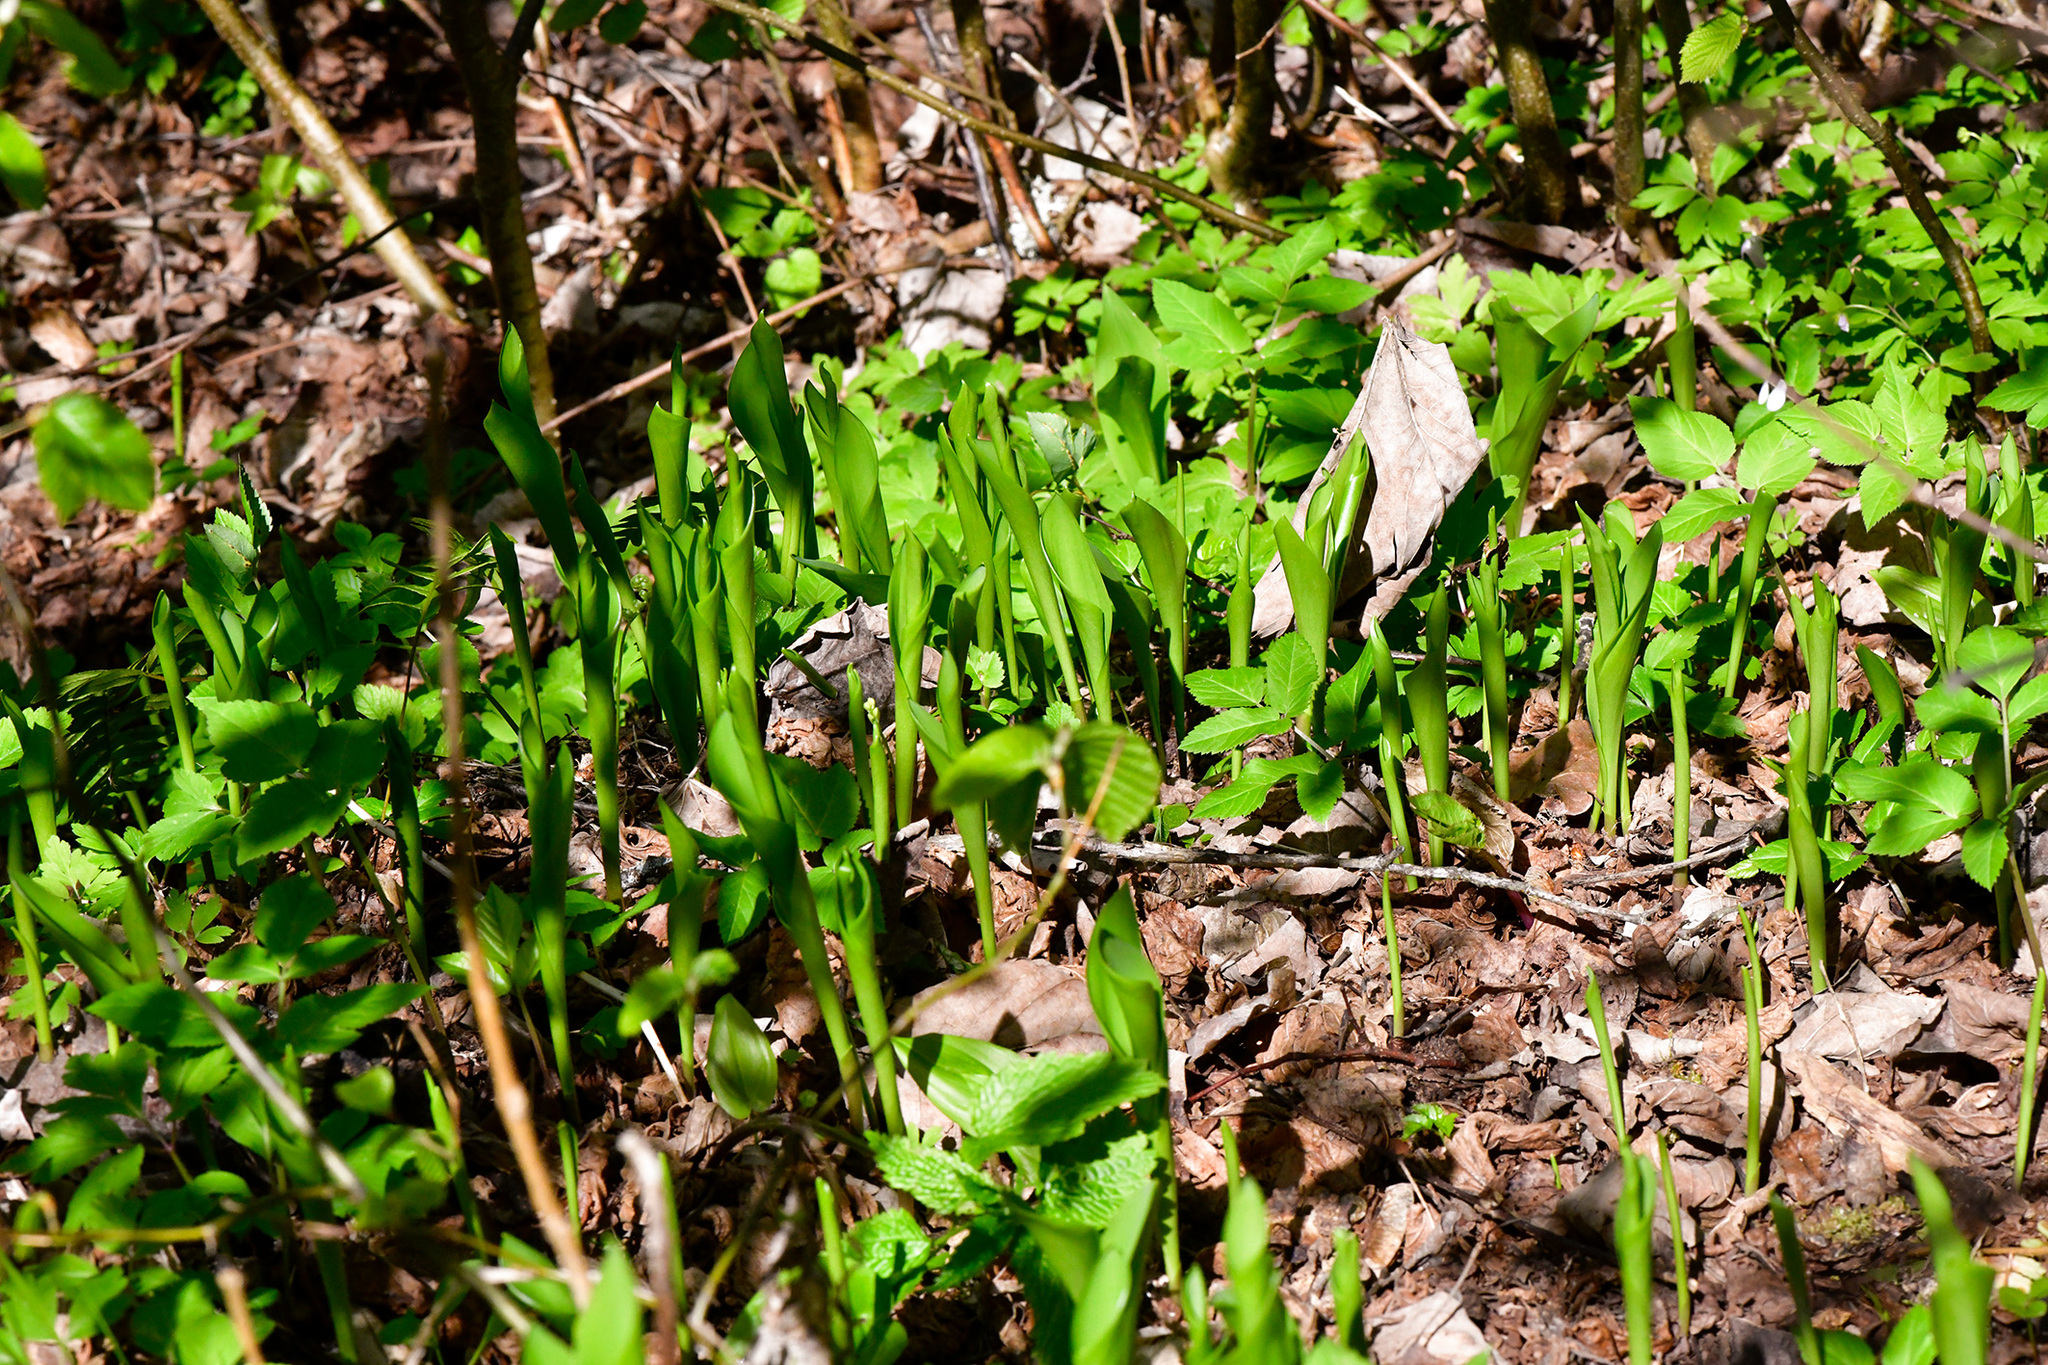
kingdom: Plantae
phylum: Tracheophyta
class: Liliopsida
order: Asparagales
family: Asparagaceae
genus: Convallaria
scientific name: Convallaria majalis
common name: Lily-of-the-valley
